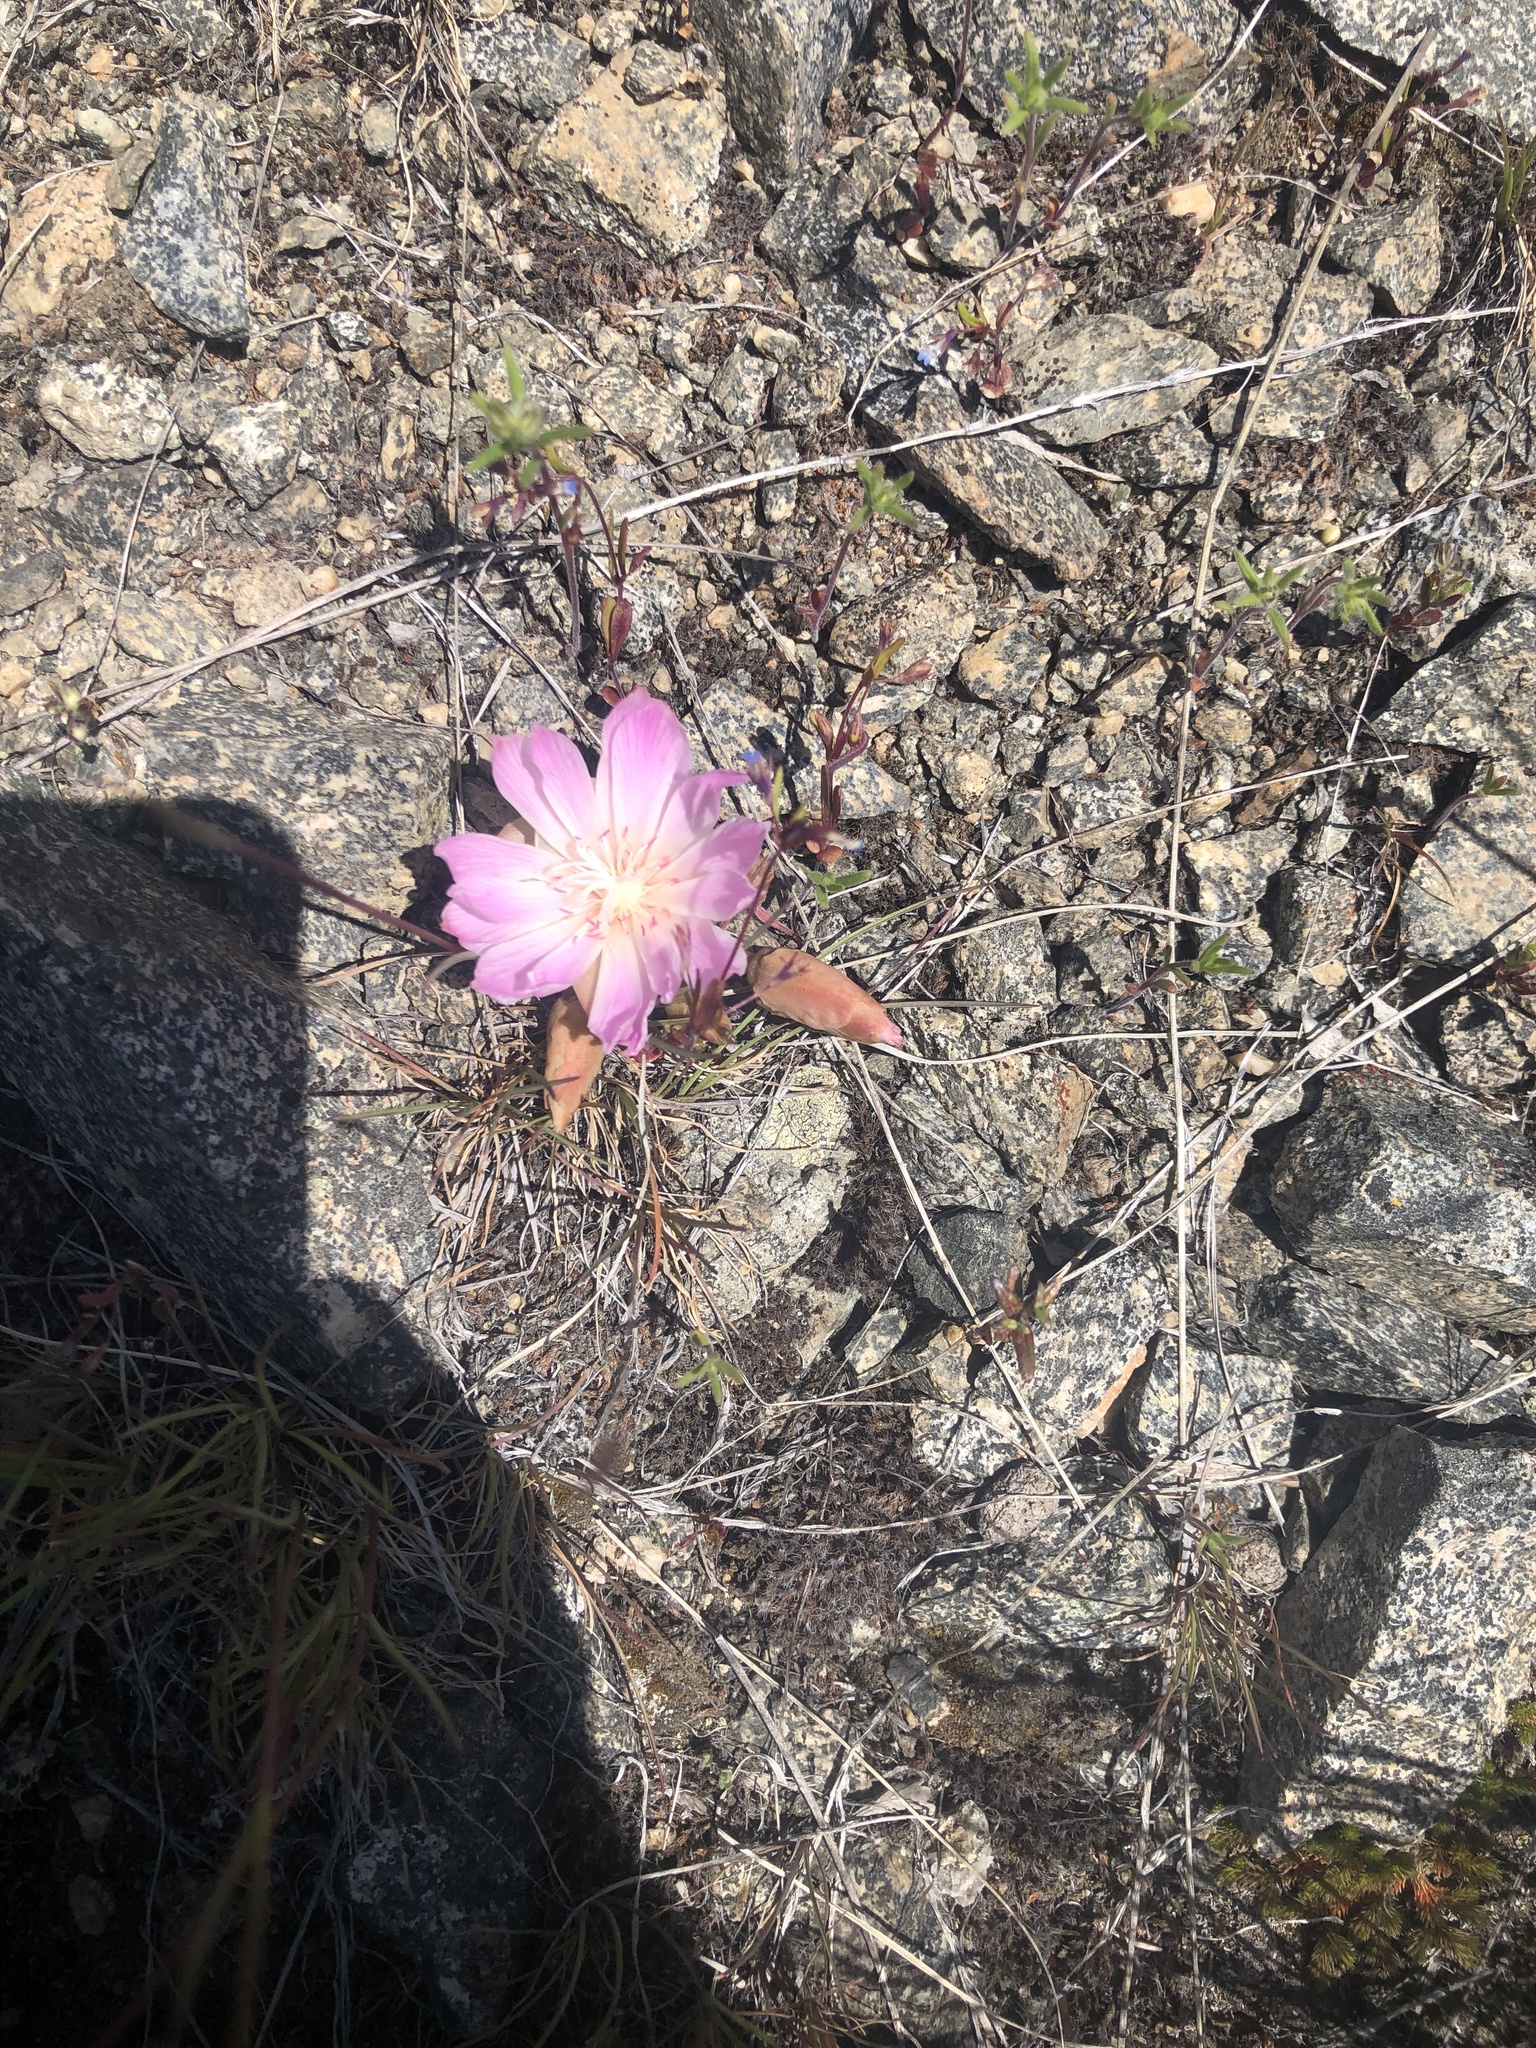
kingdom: Plantae
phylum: Tracheophyta
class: Magnoliopsida
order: Caryophyllales
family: Montiaceae
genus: Lewisia
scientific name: Lewisia rediviva
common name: Bitter-root
